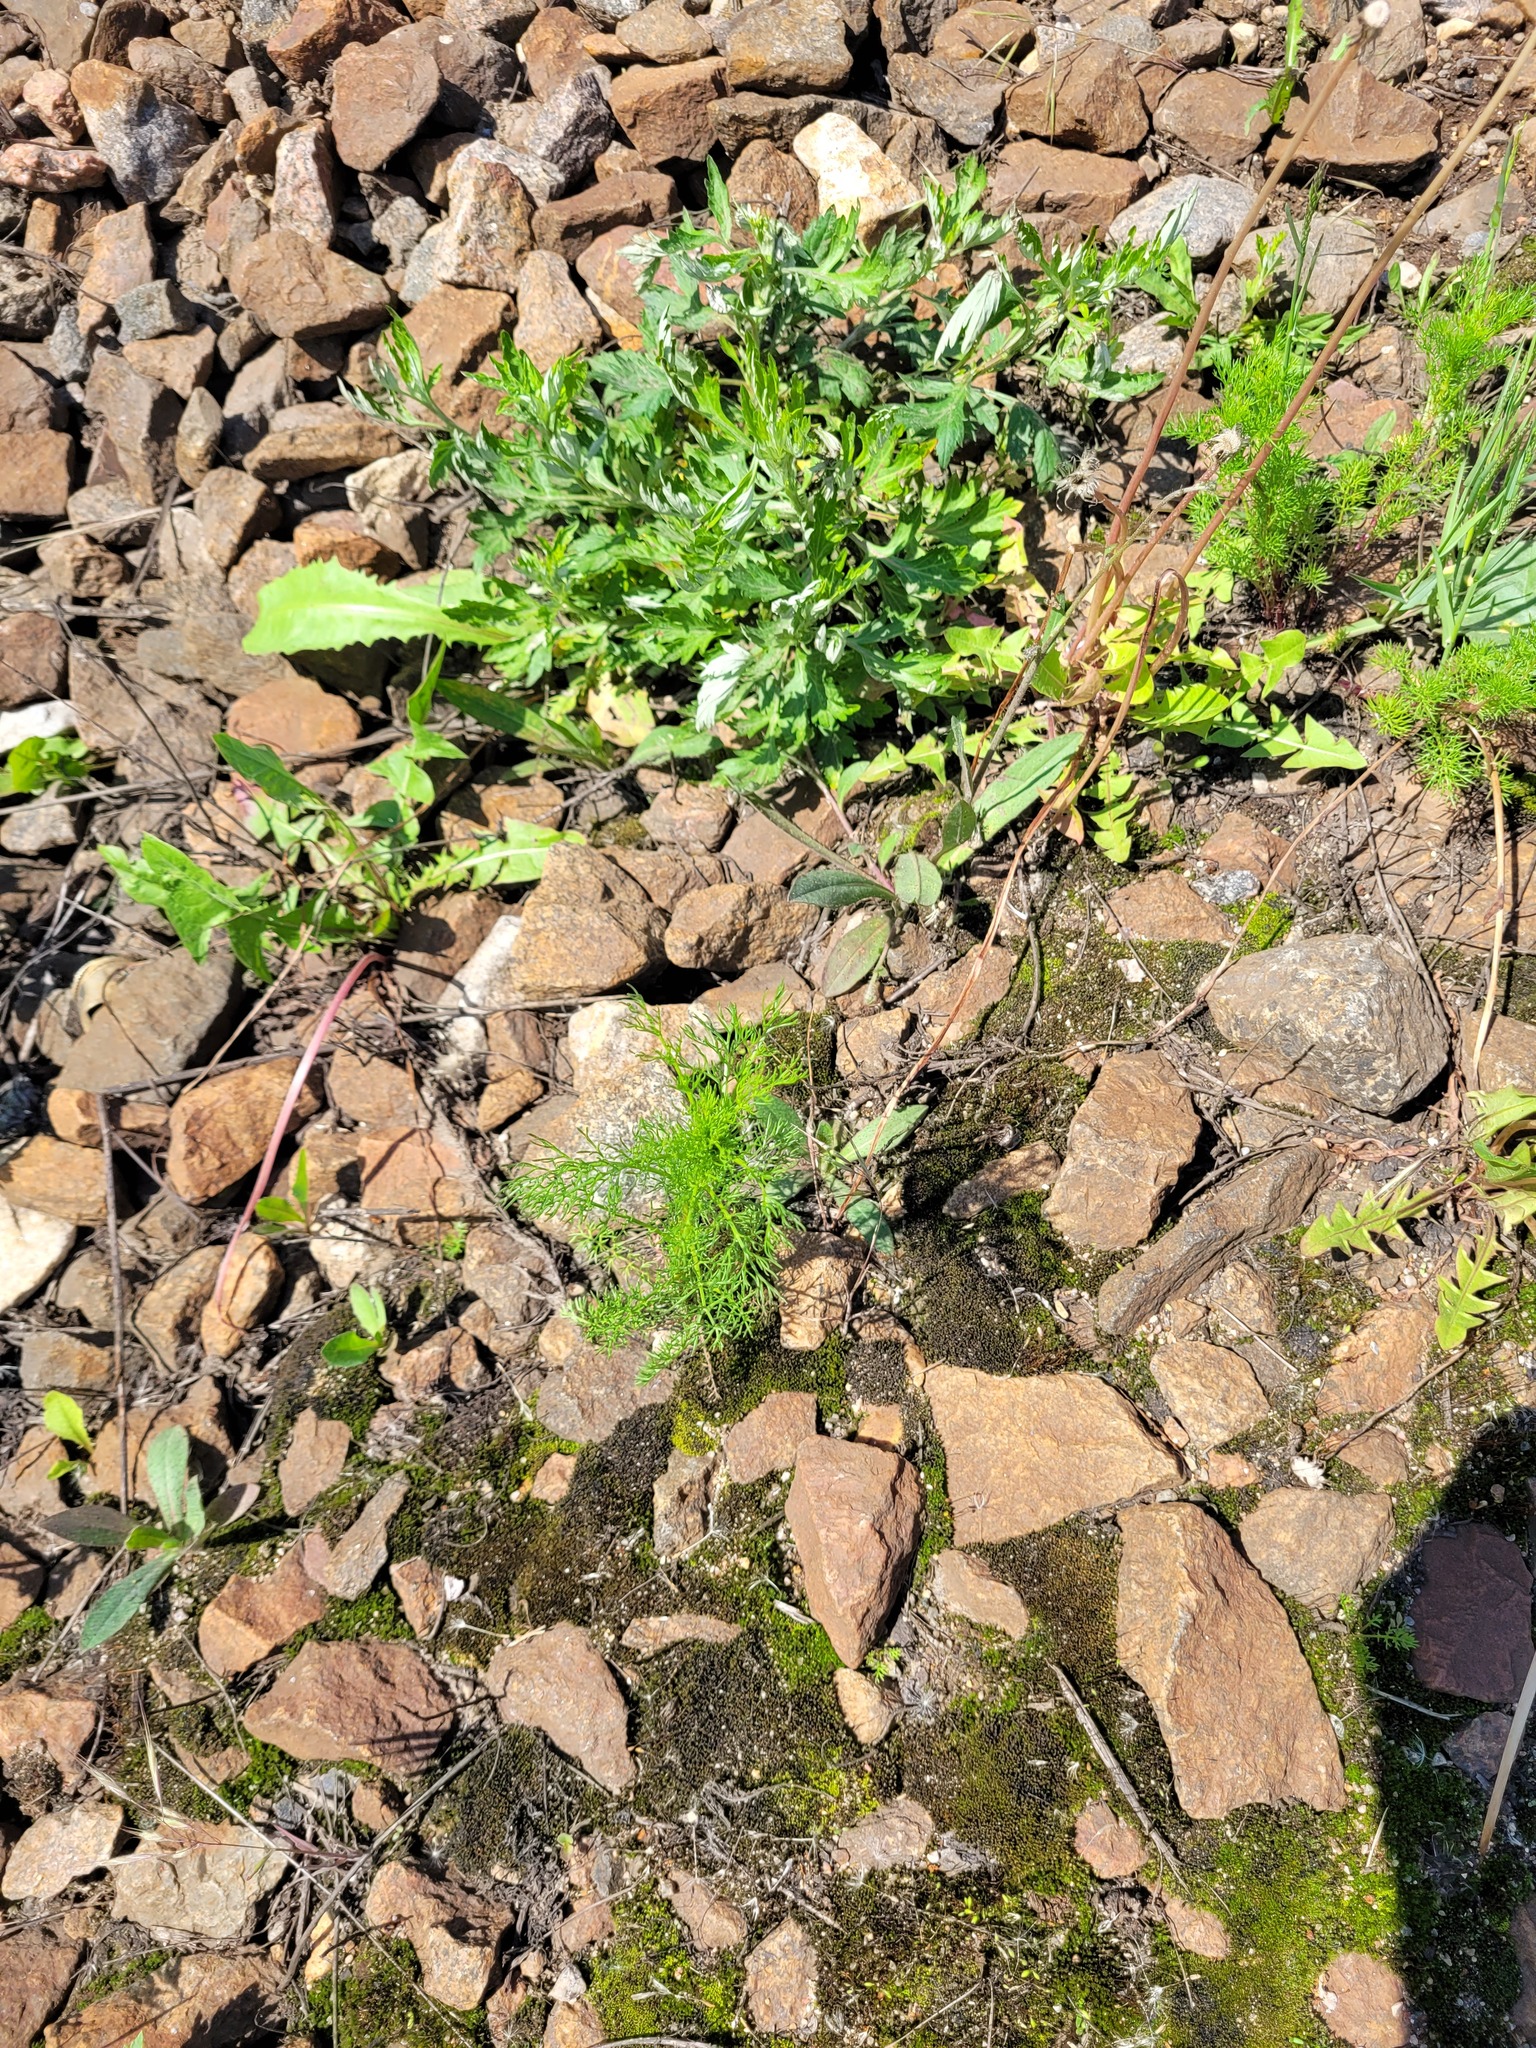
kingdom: Plantae
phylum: Tracheophyta
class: Magnoliopsida
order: Asterales
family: Asteraceae
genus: Tripleurospermum
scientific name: Tripleurospermum inodorum
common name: Scentless mayweed
